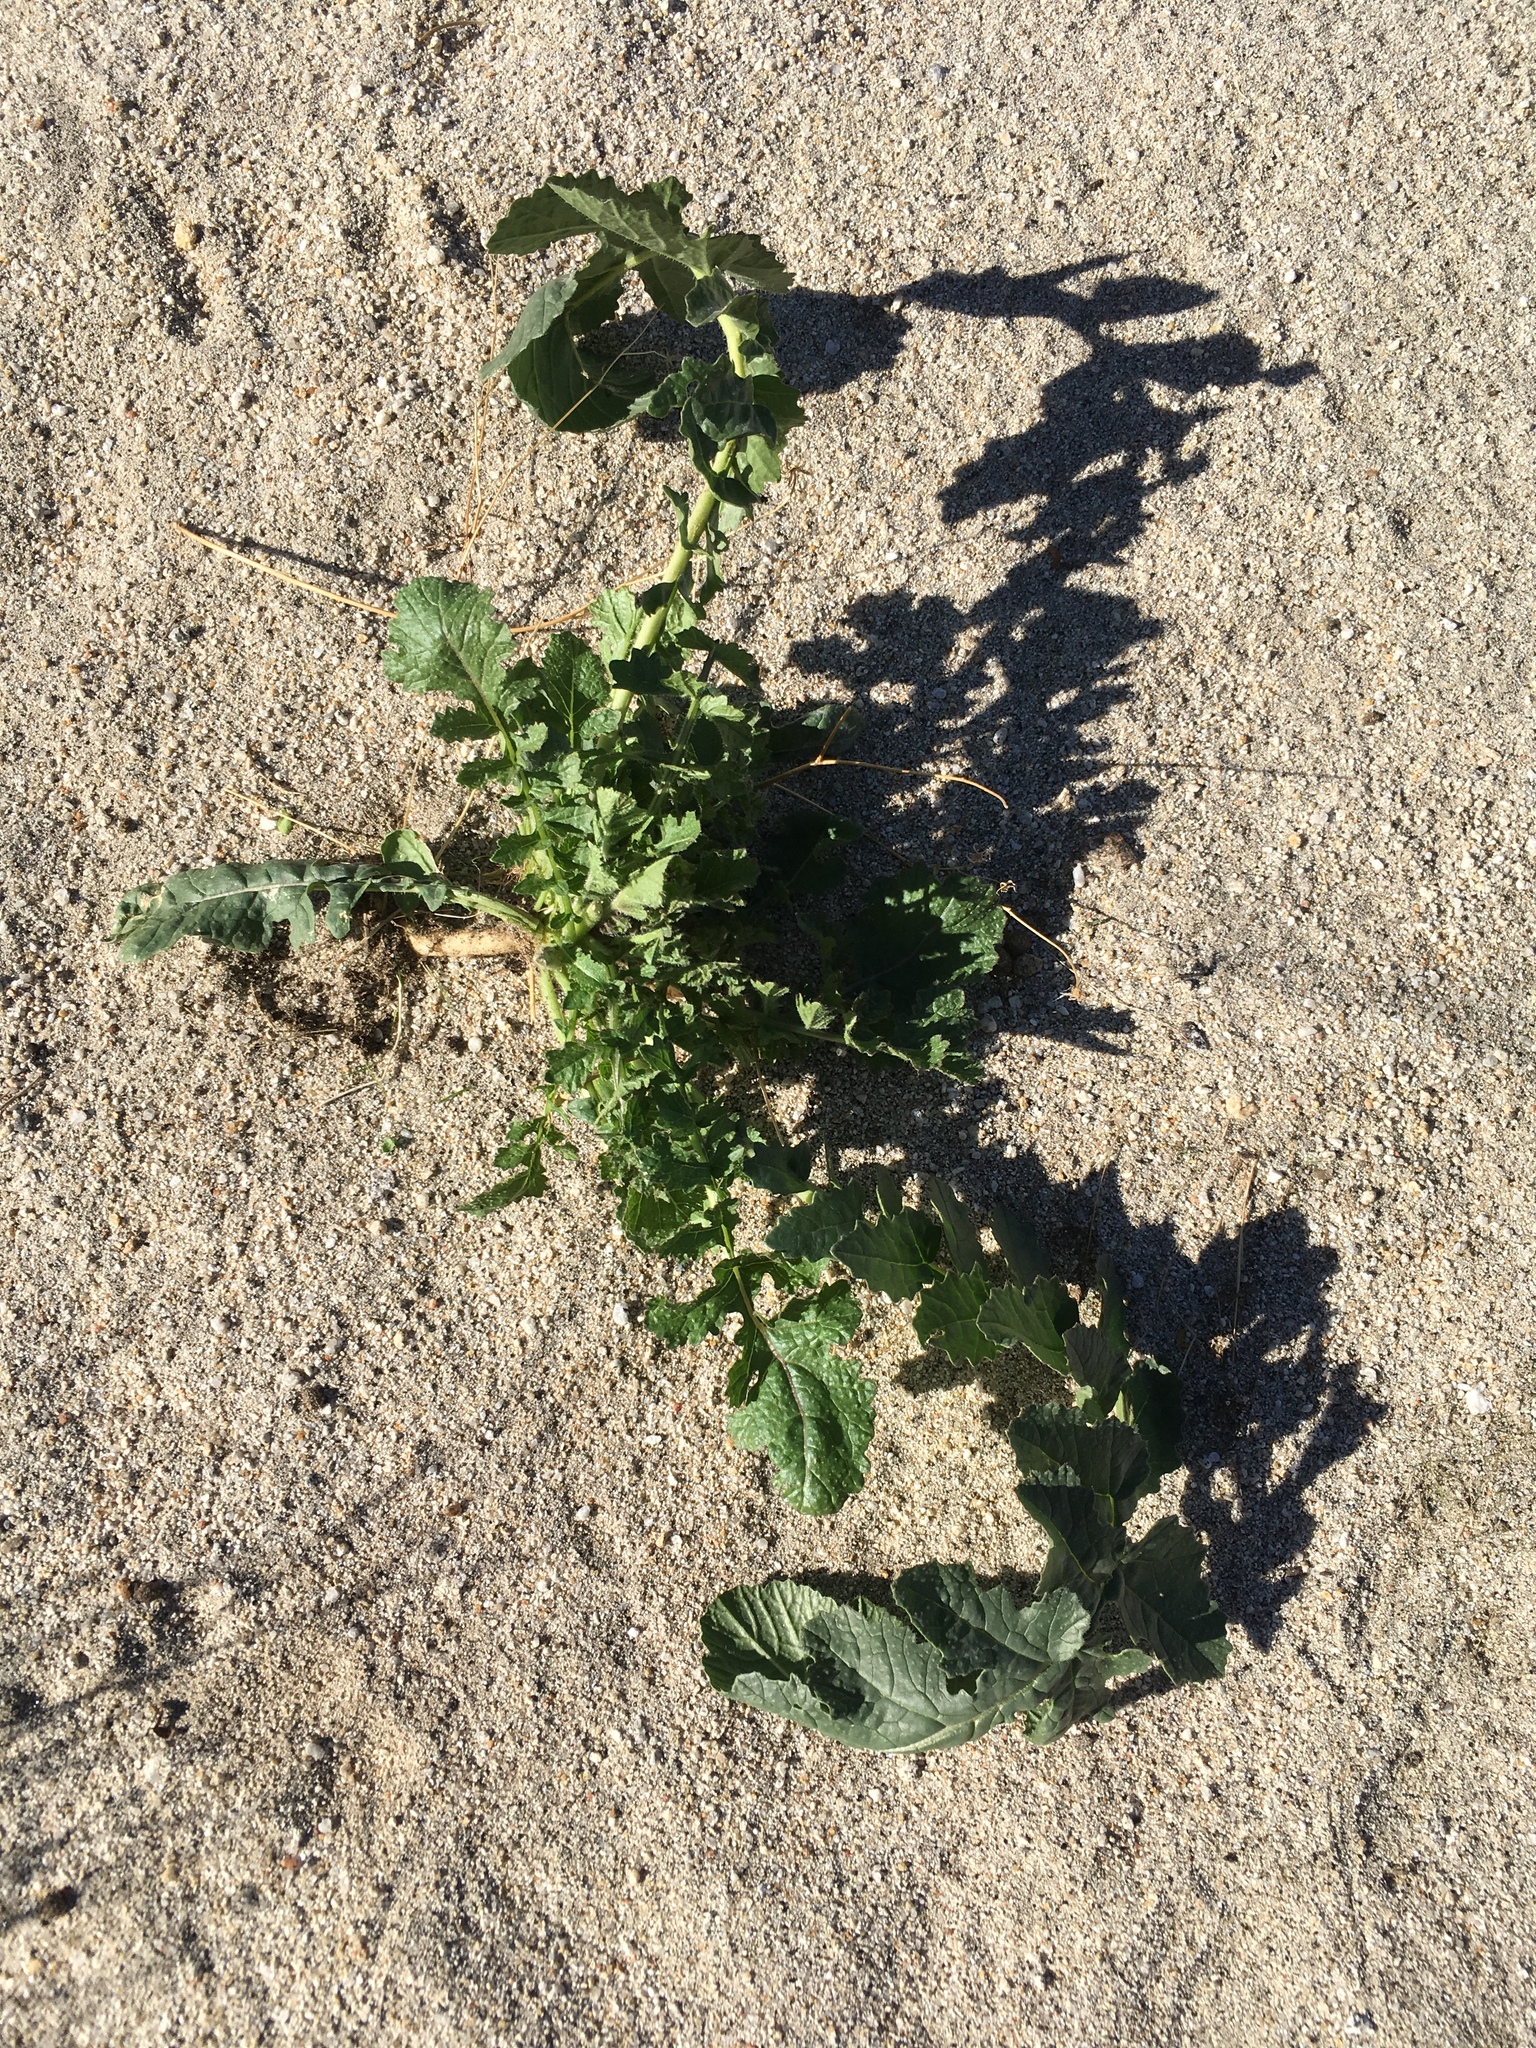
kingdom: Plantae
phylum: Tracheophyta
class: Magnoliopsida
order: Brassicales
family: Brassicaceae
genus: Brassica
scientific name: Brassica tournefortii
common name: Pale cabbage
